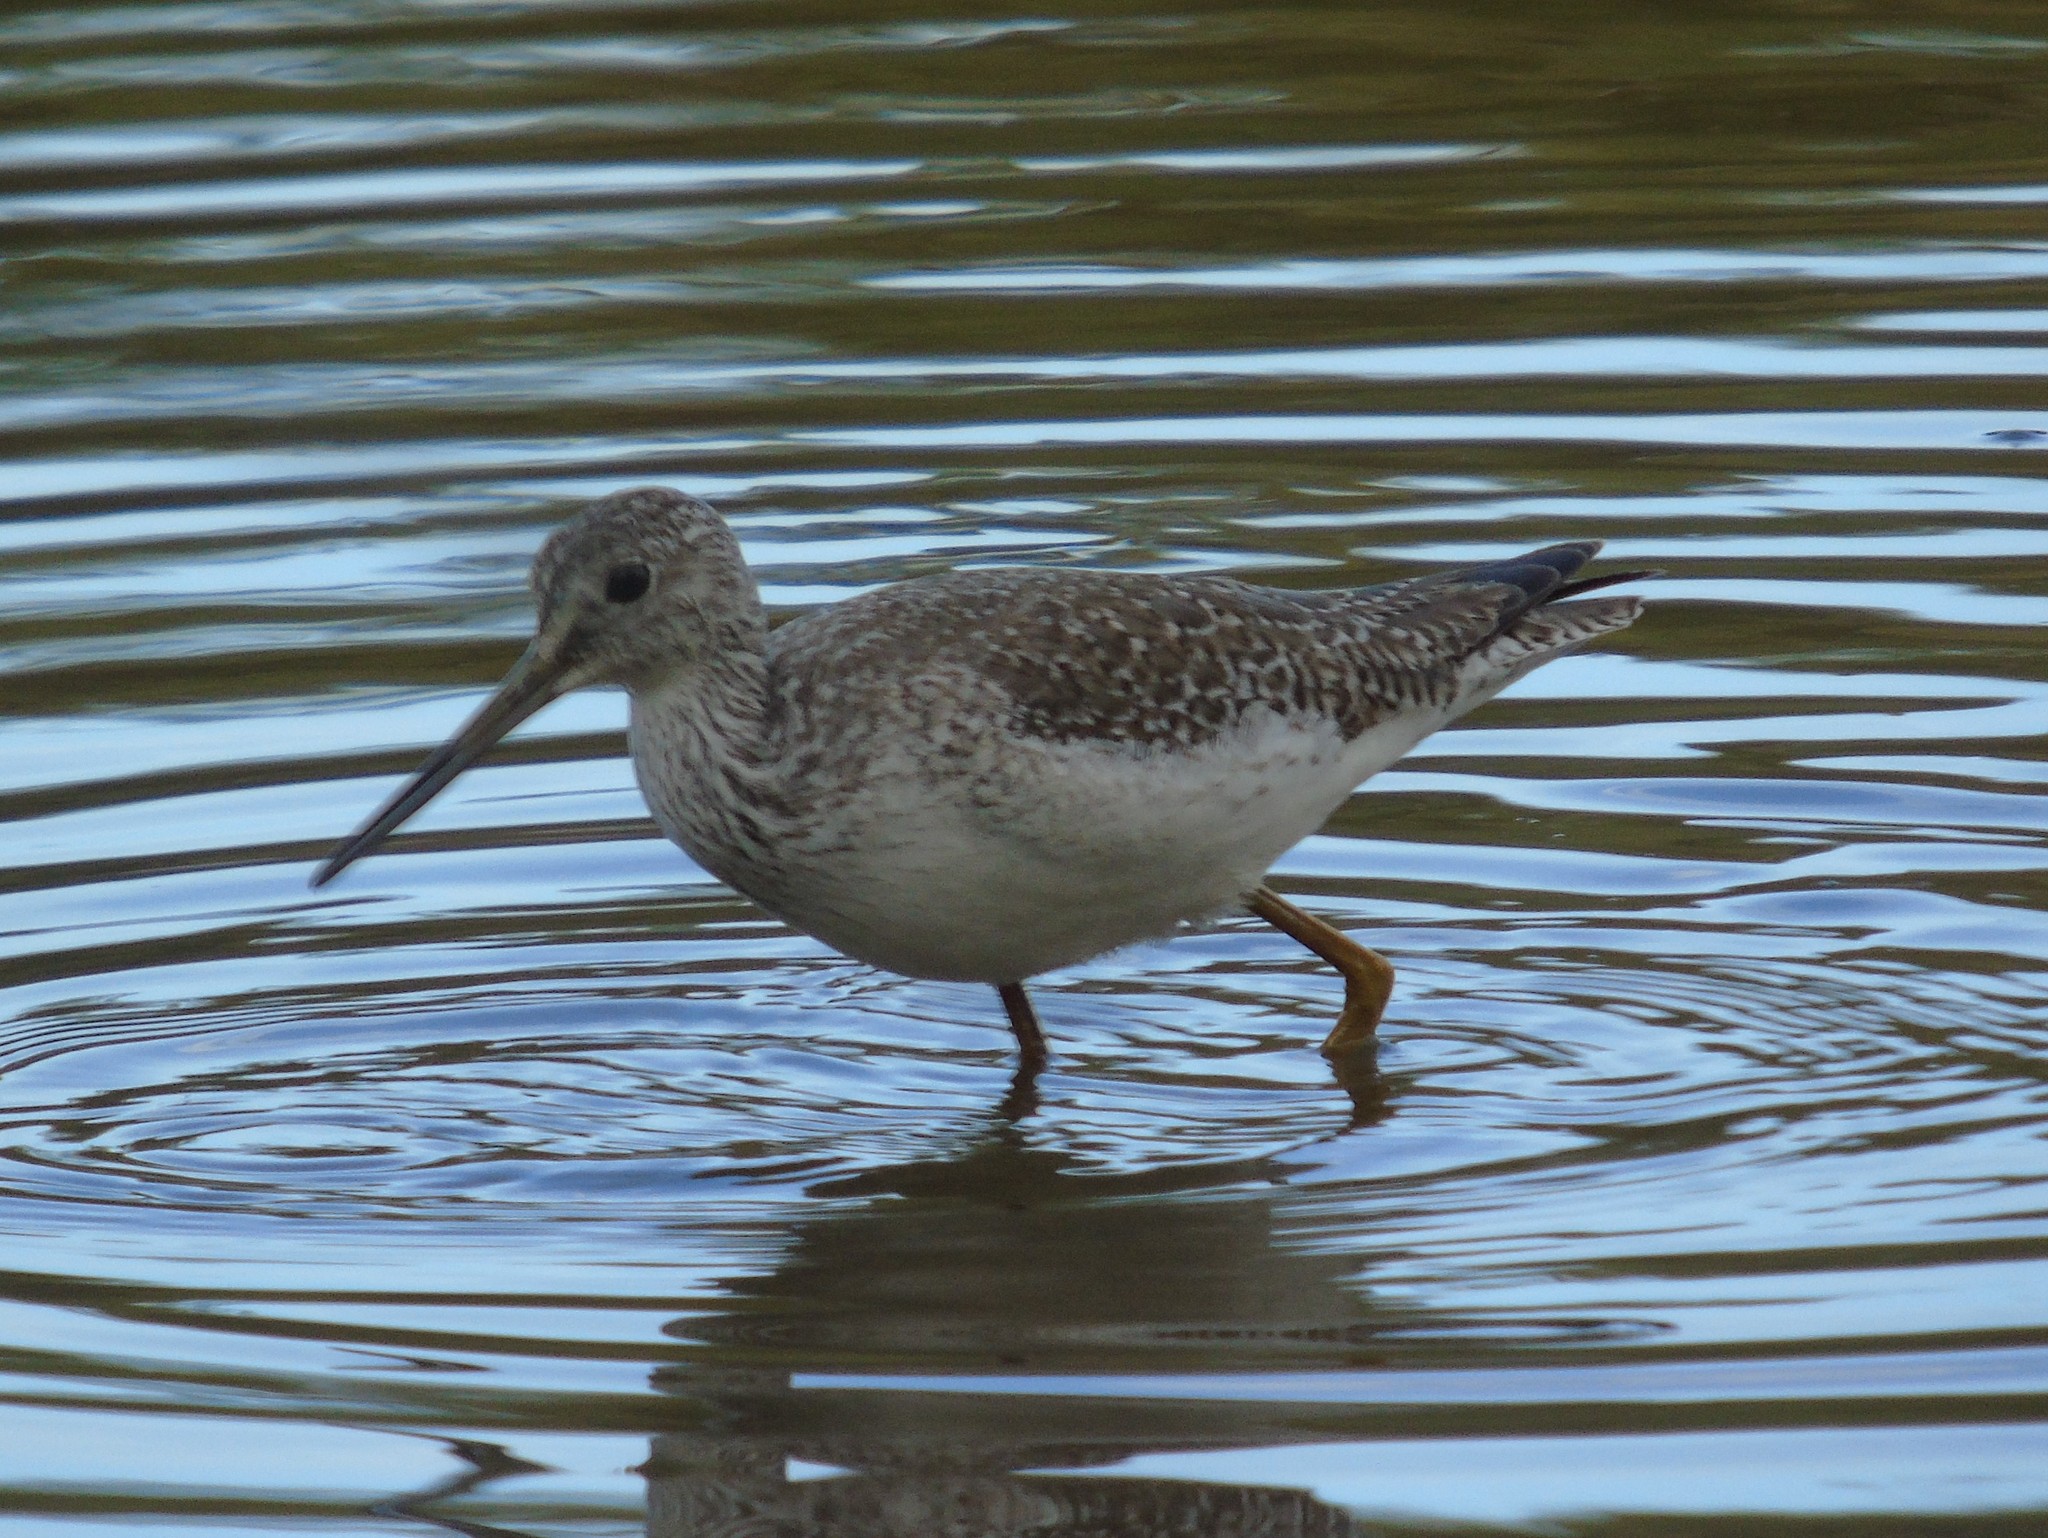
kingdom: Animalia
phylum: Chordata
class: Aves
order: Charadriiformes
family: Scolopacidae
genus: Tringa
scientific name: Tringa melanoleuca
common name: Greater yellowlegs
